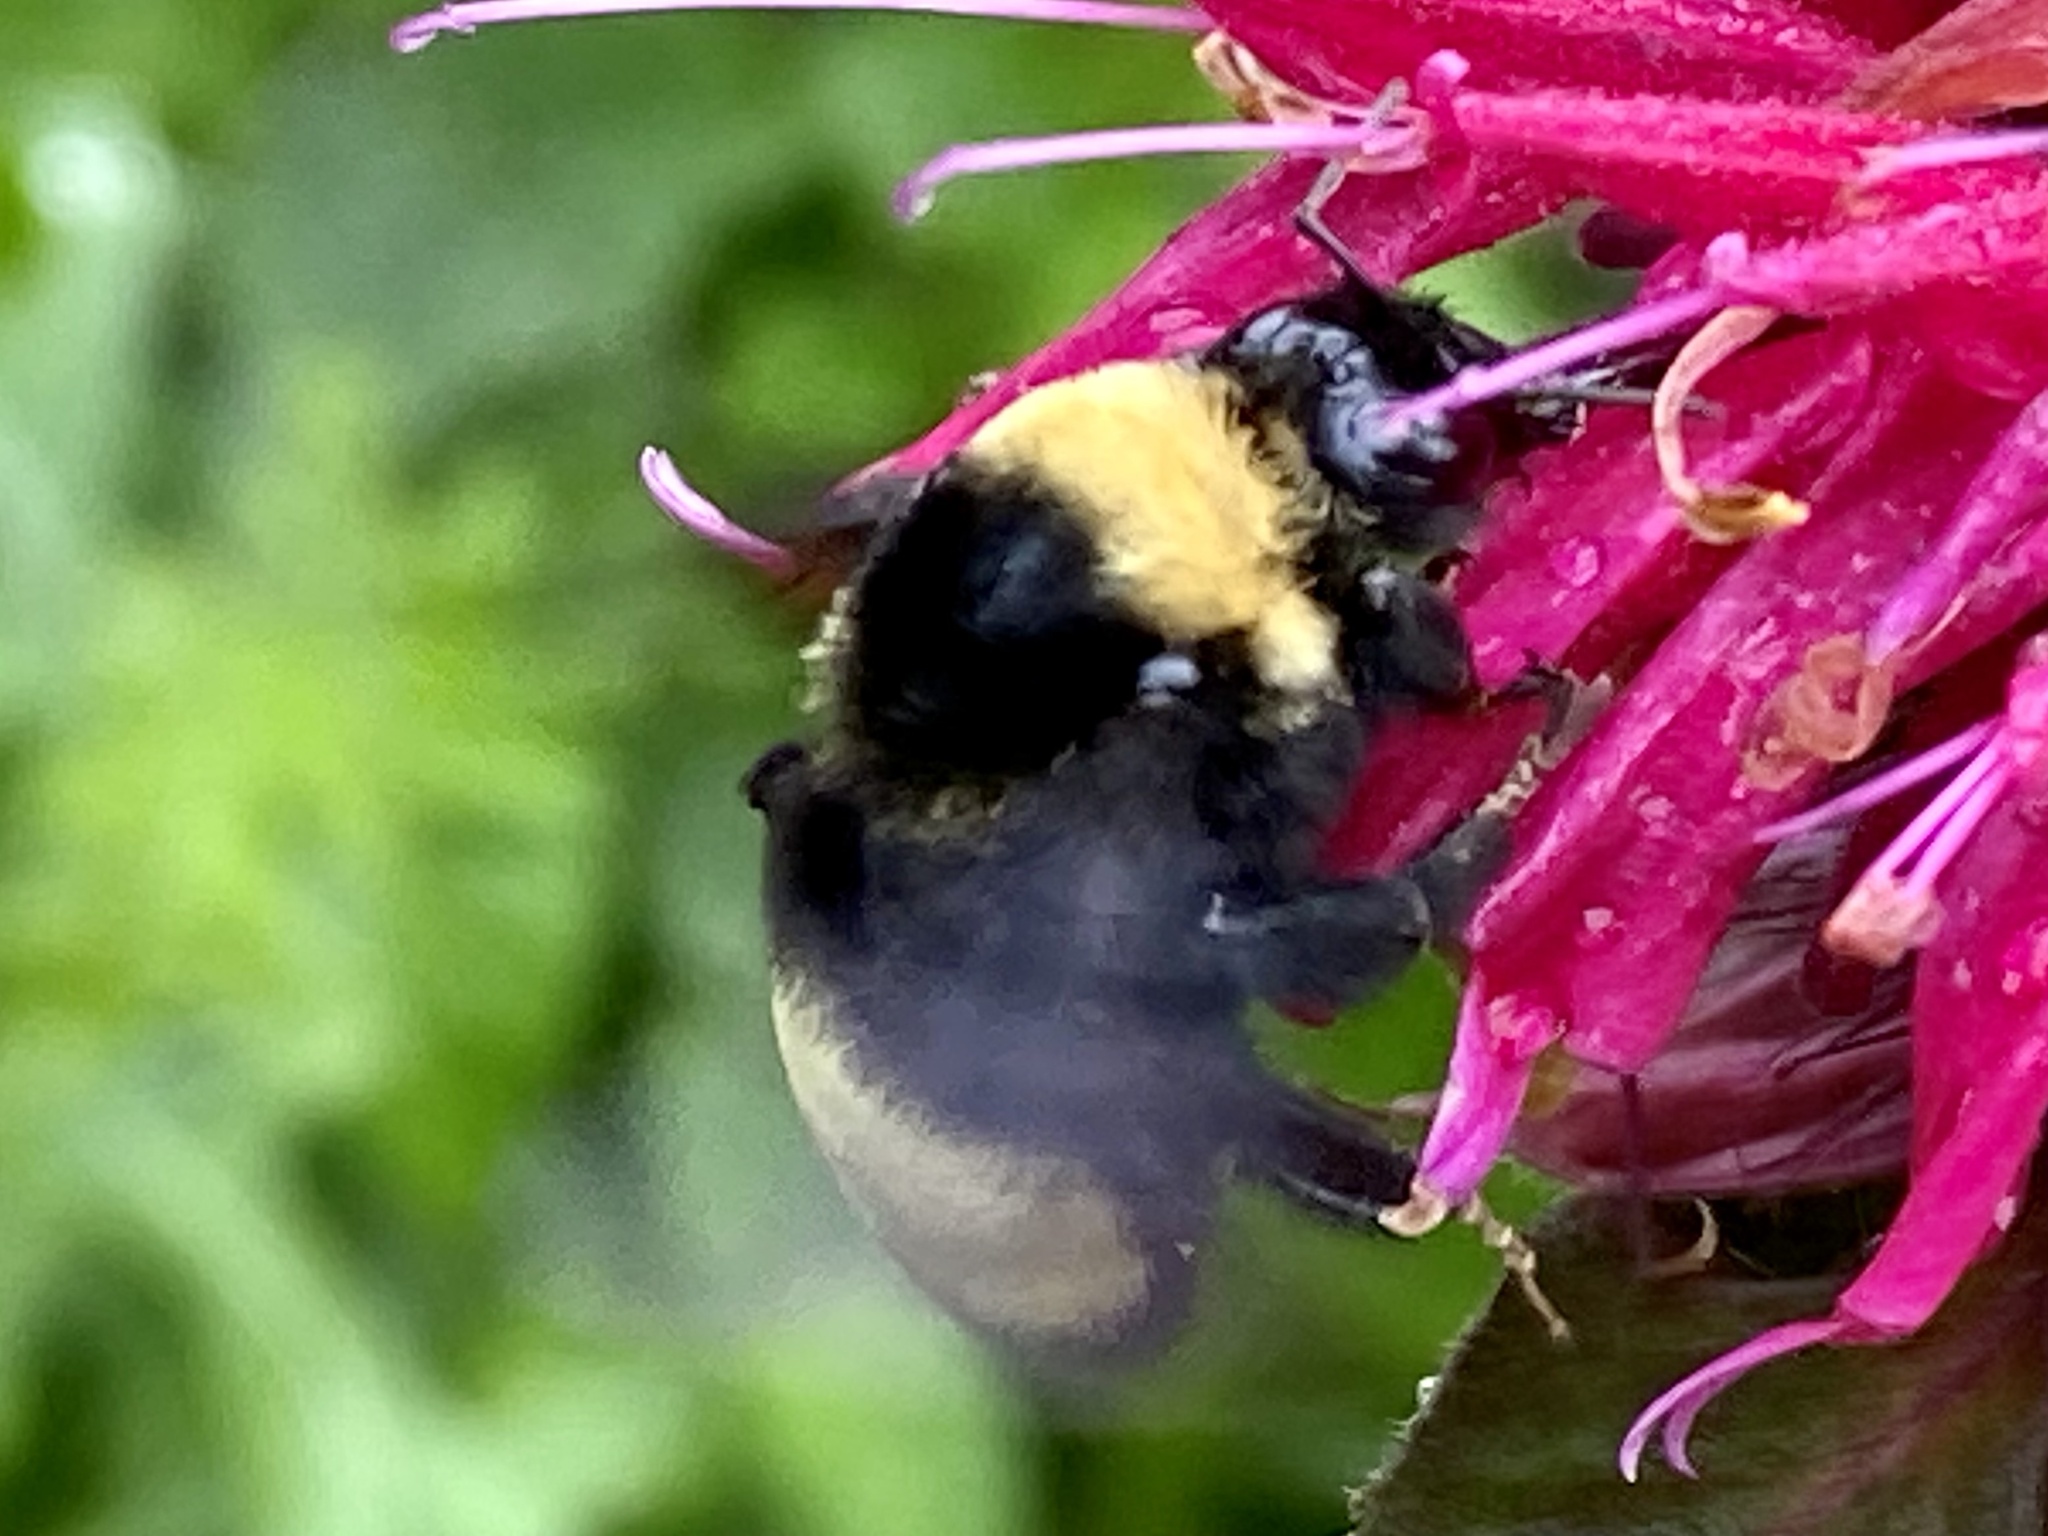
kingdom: Animalia
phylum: Arthropoda
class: Insecta
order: Hymenoptera
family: Apidae
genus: Bombus
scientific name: Bombus auricomus
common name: Black and gold bumble bee
